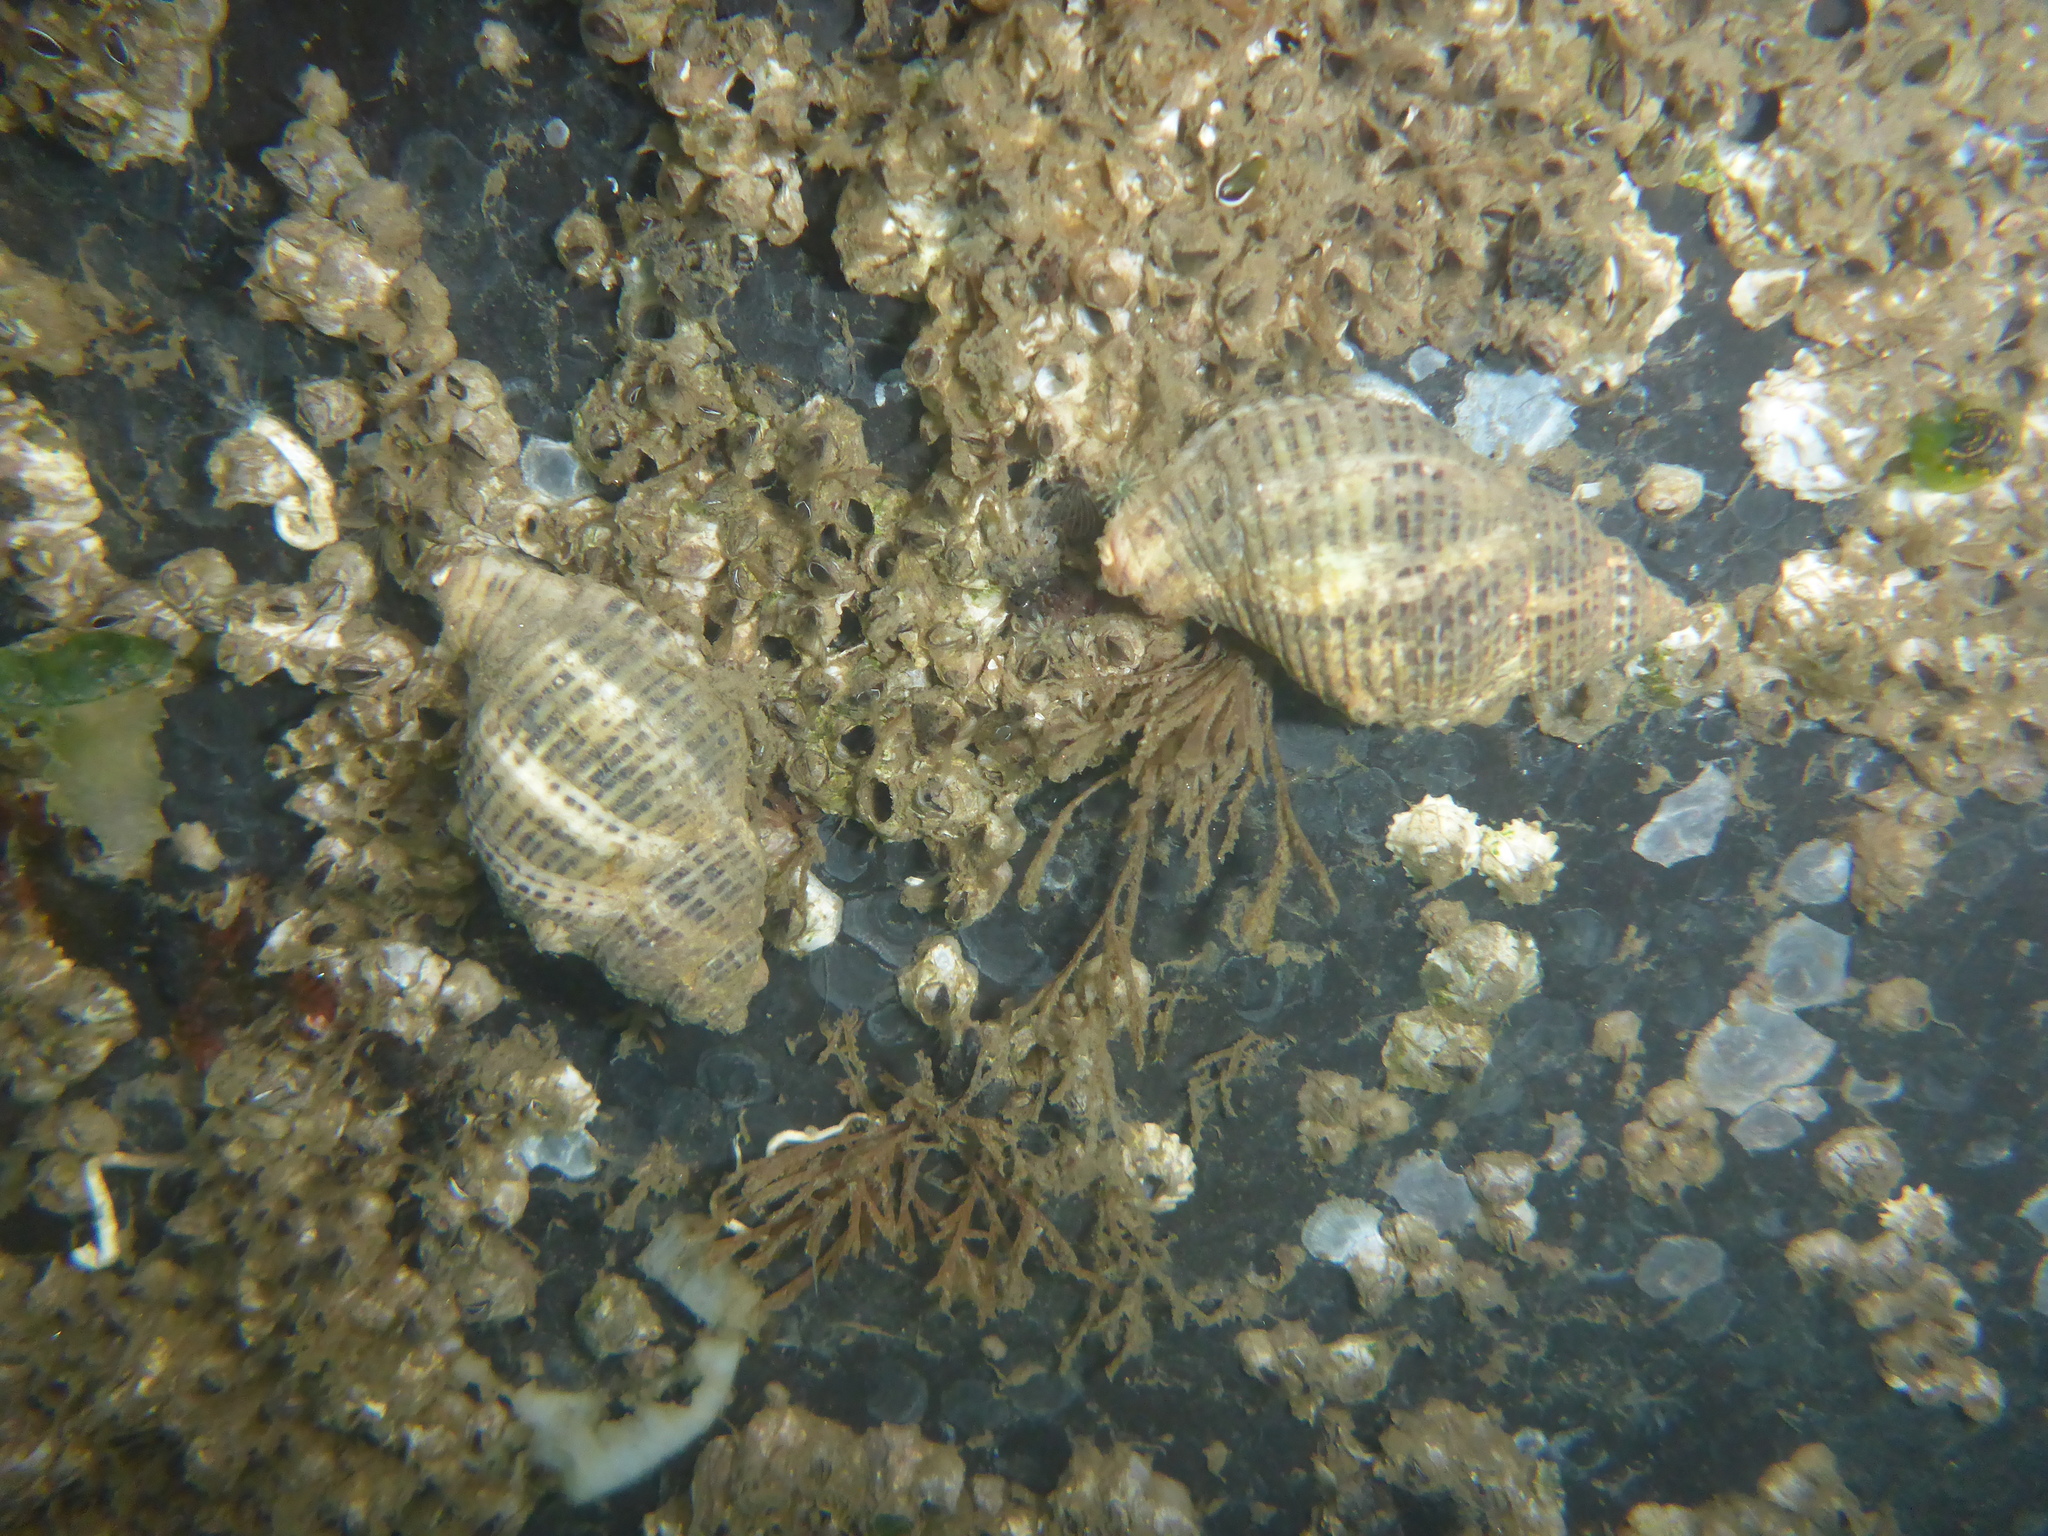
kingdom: Animalia
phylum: Mollusca
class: Gastropoda
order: Neogastropoda
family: Muricidae
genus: Acanthinucella
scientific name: Acanthinucella spirata
